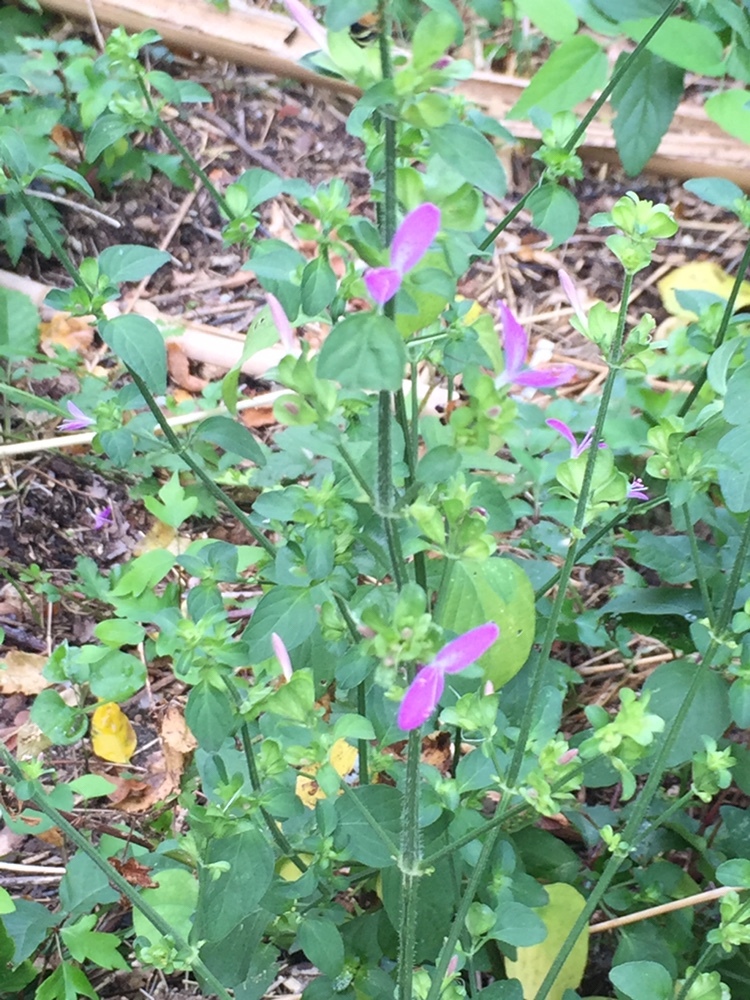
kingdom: Plantae
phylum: Tracheophyta
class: Magnoliopsida
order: Lamiales
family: Acanthaceae
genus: Dicliptera
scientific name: Dicliptera brachiata
